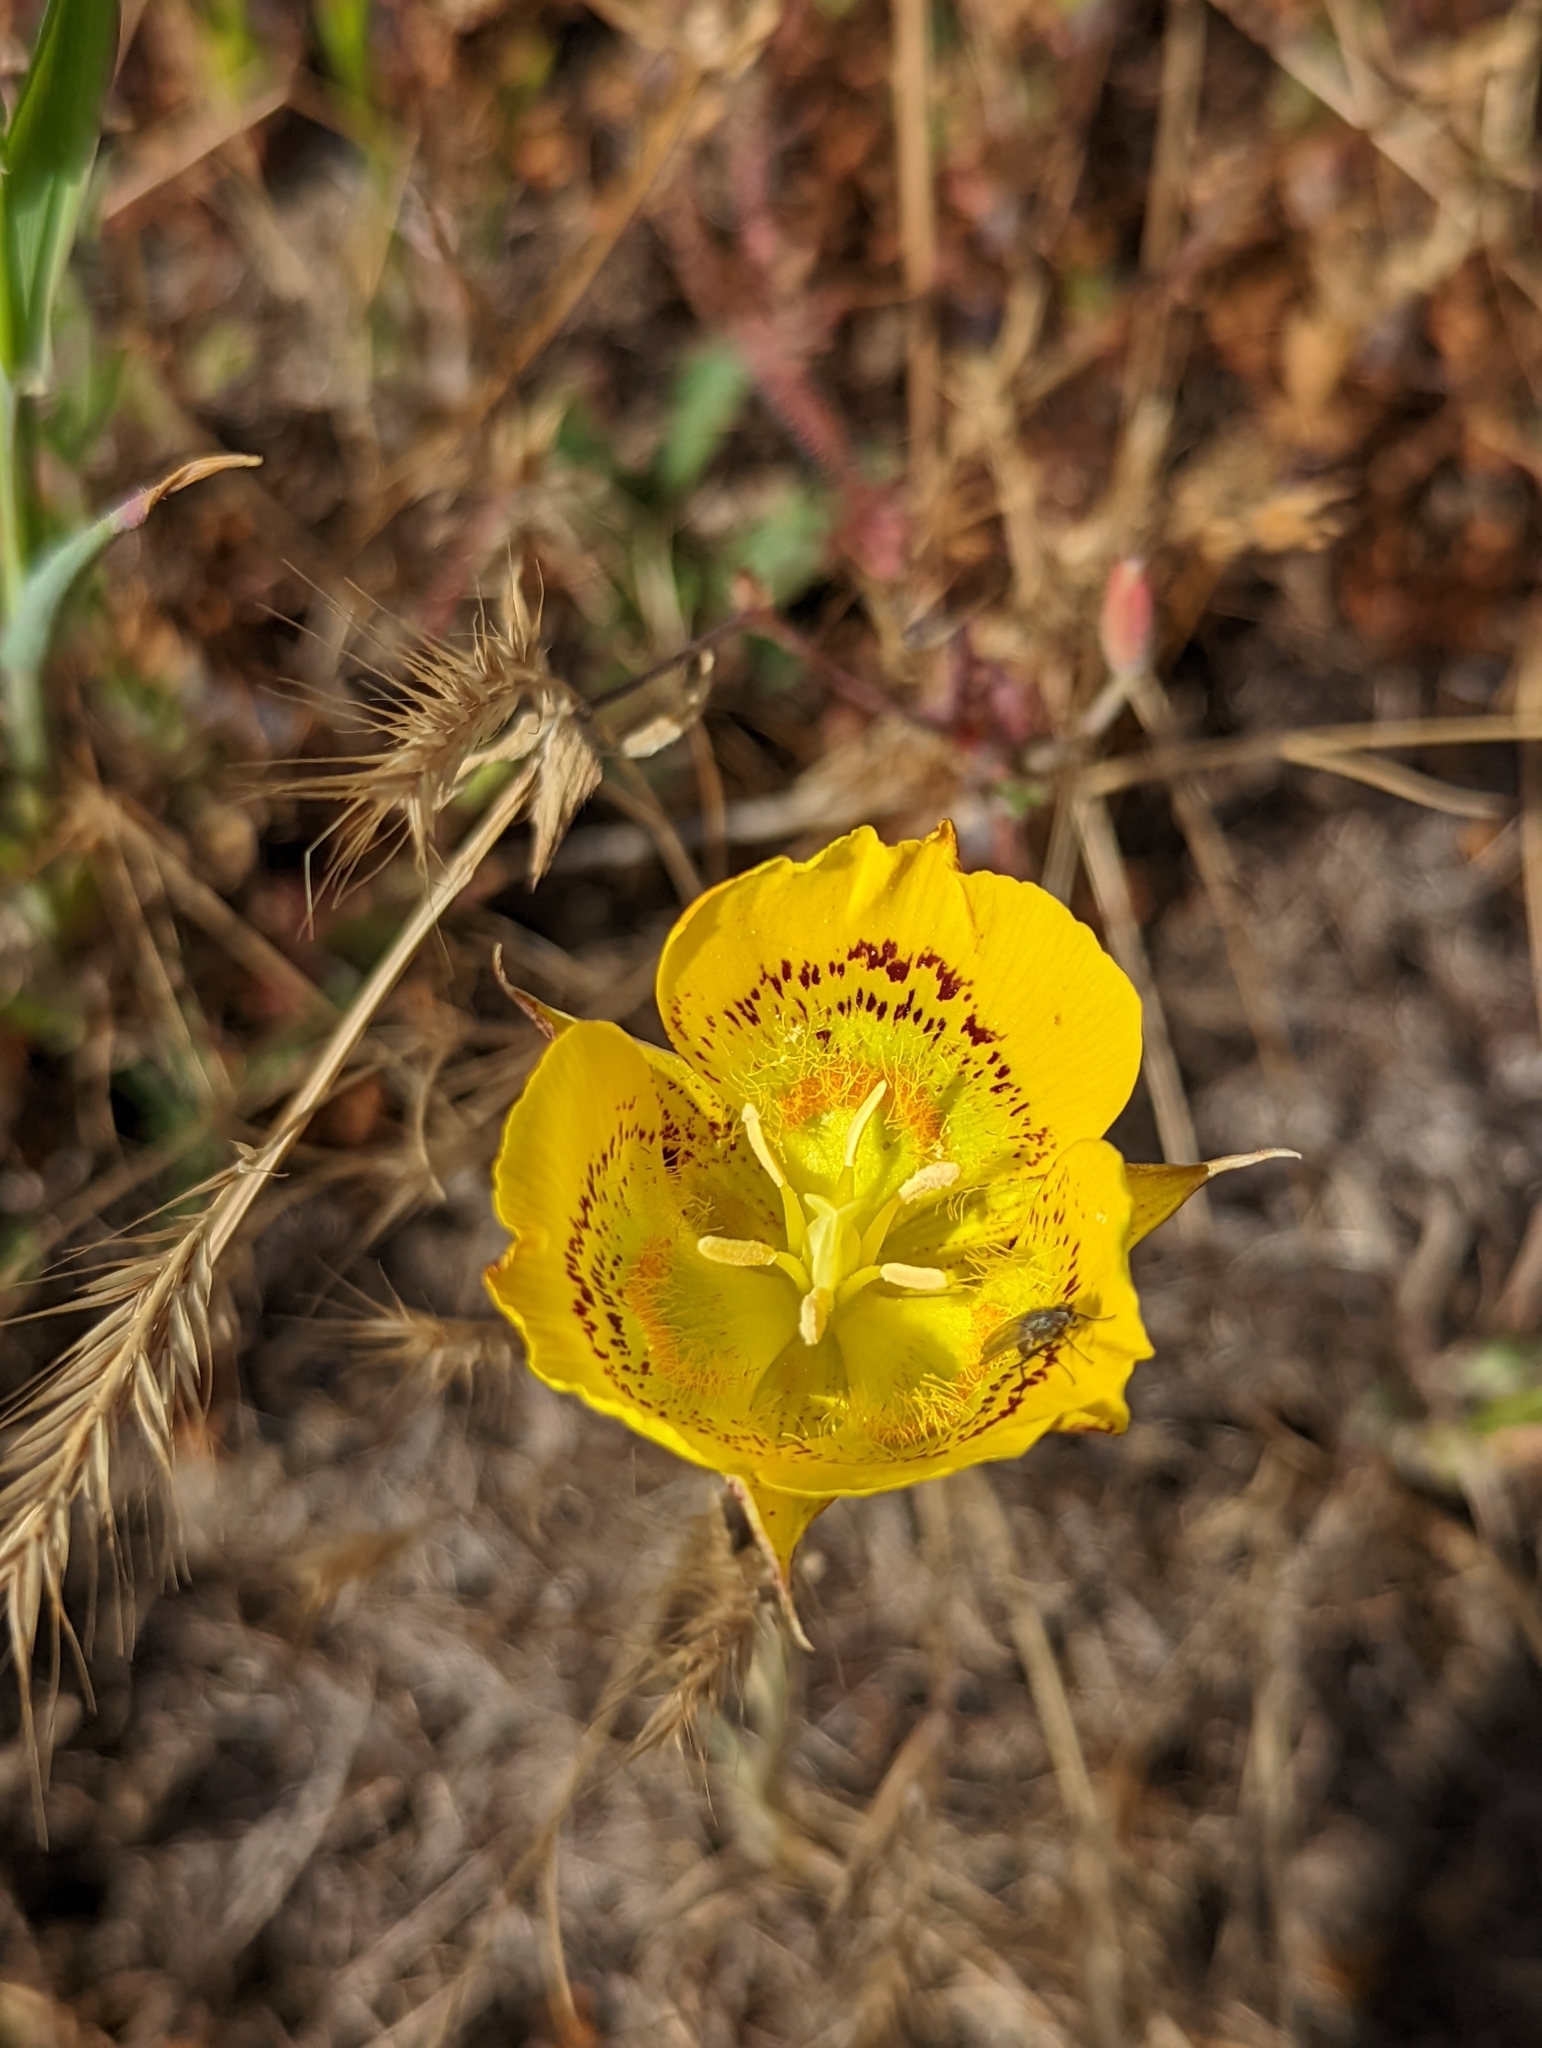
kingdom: Plantae
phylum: Tracheophyta
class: Liliopsida
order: Liliales
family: Liliaceae
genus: Calochortus
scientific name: Calochortus luteus
